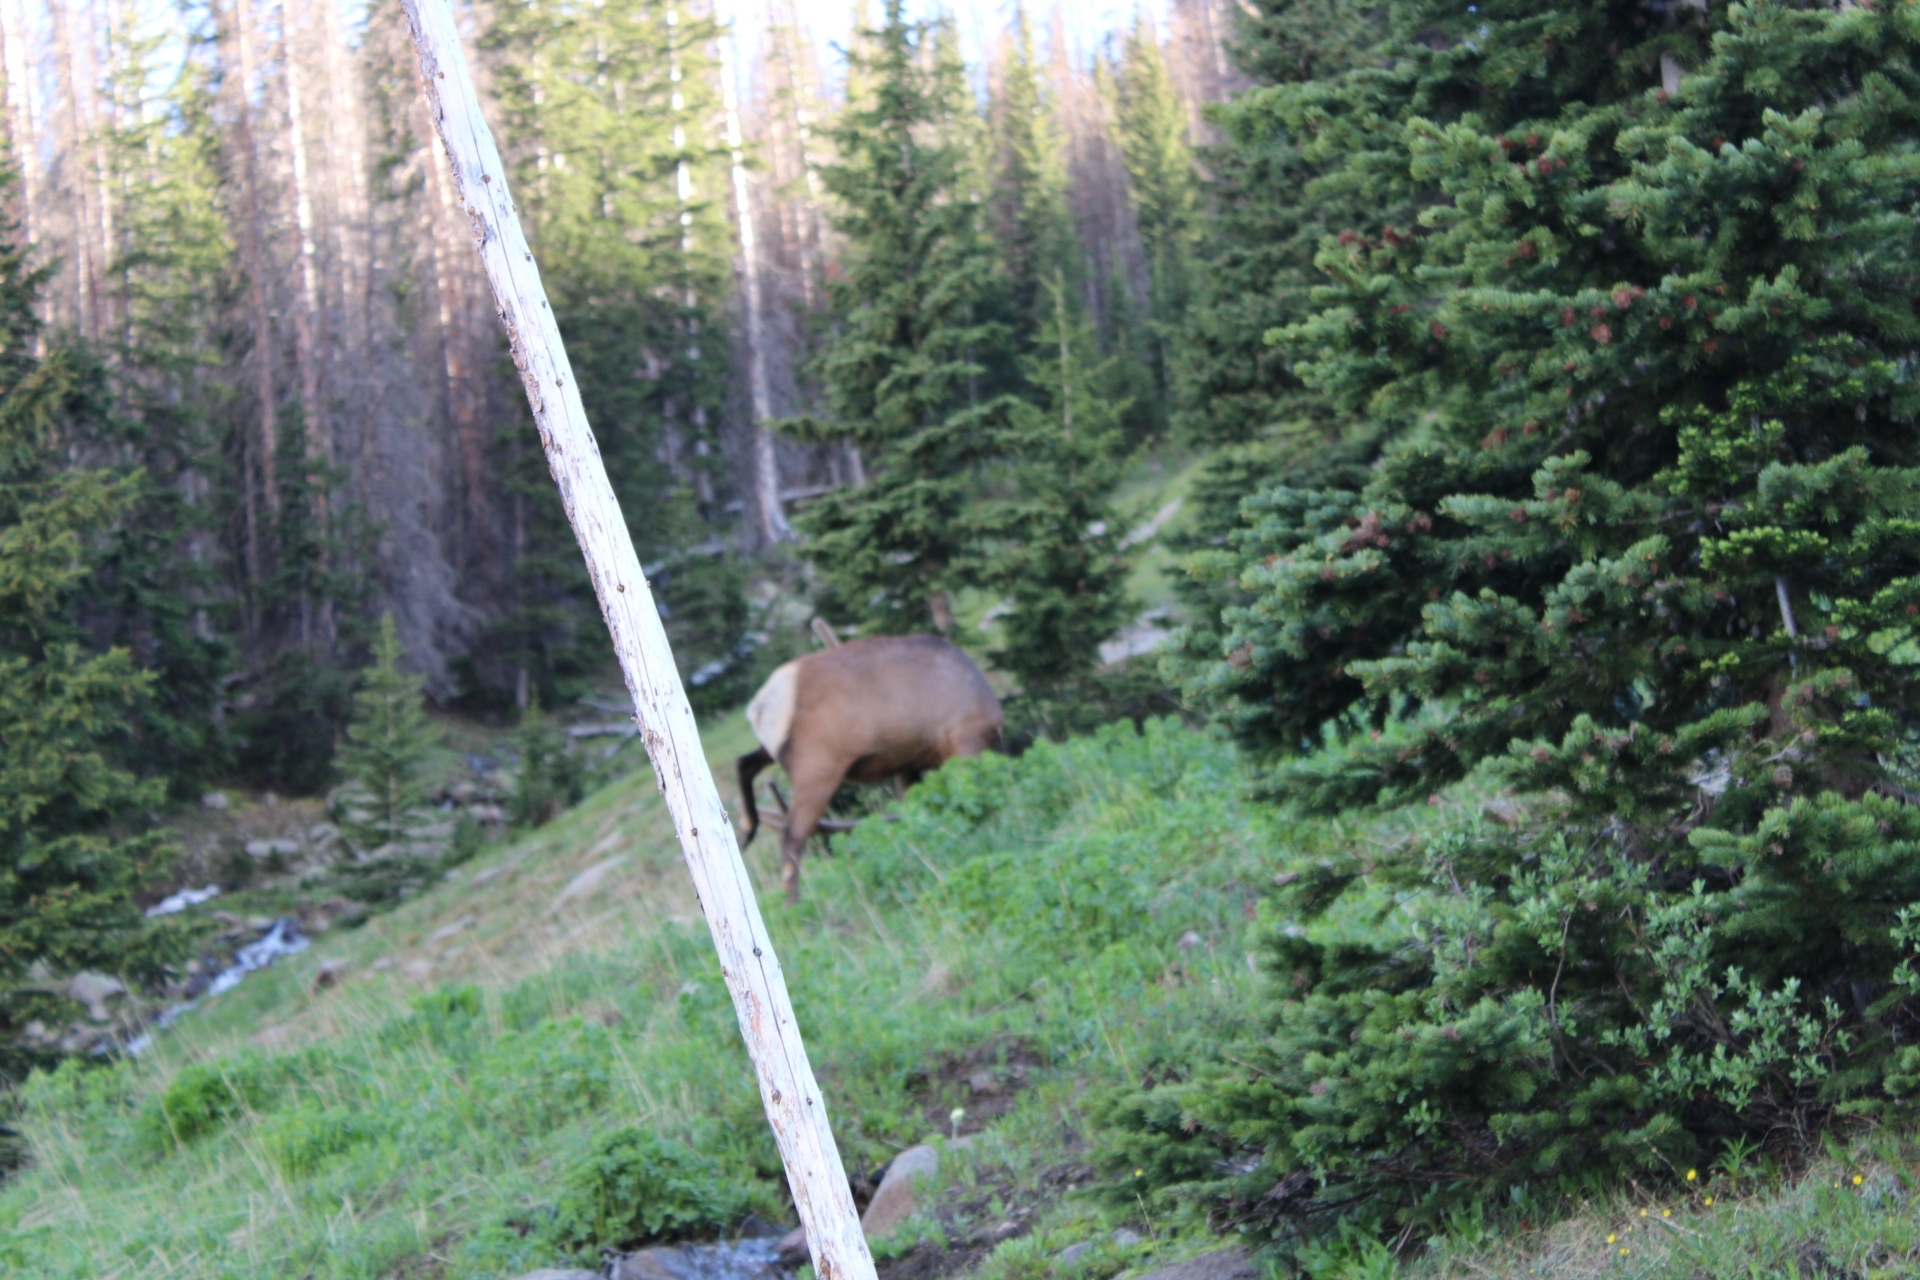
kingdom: Animalia
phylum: Chordata
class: Mammalia
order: Artiodactyla
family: Cervidae
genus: Cervus
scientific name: Cervus elaphus
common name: Red deer
